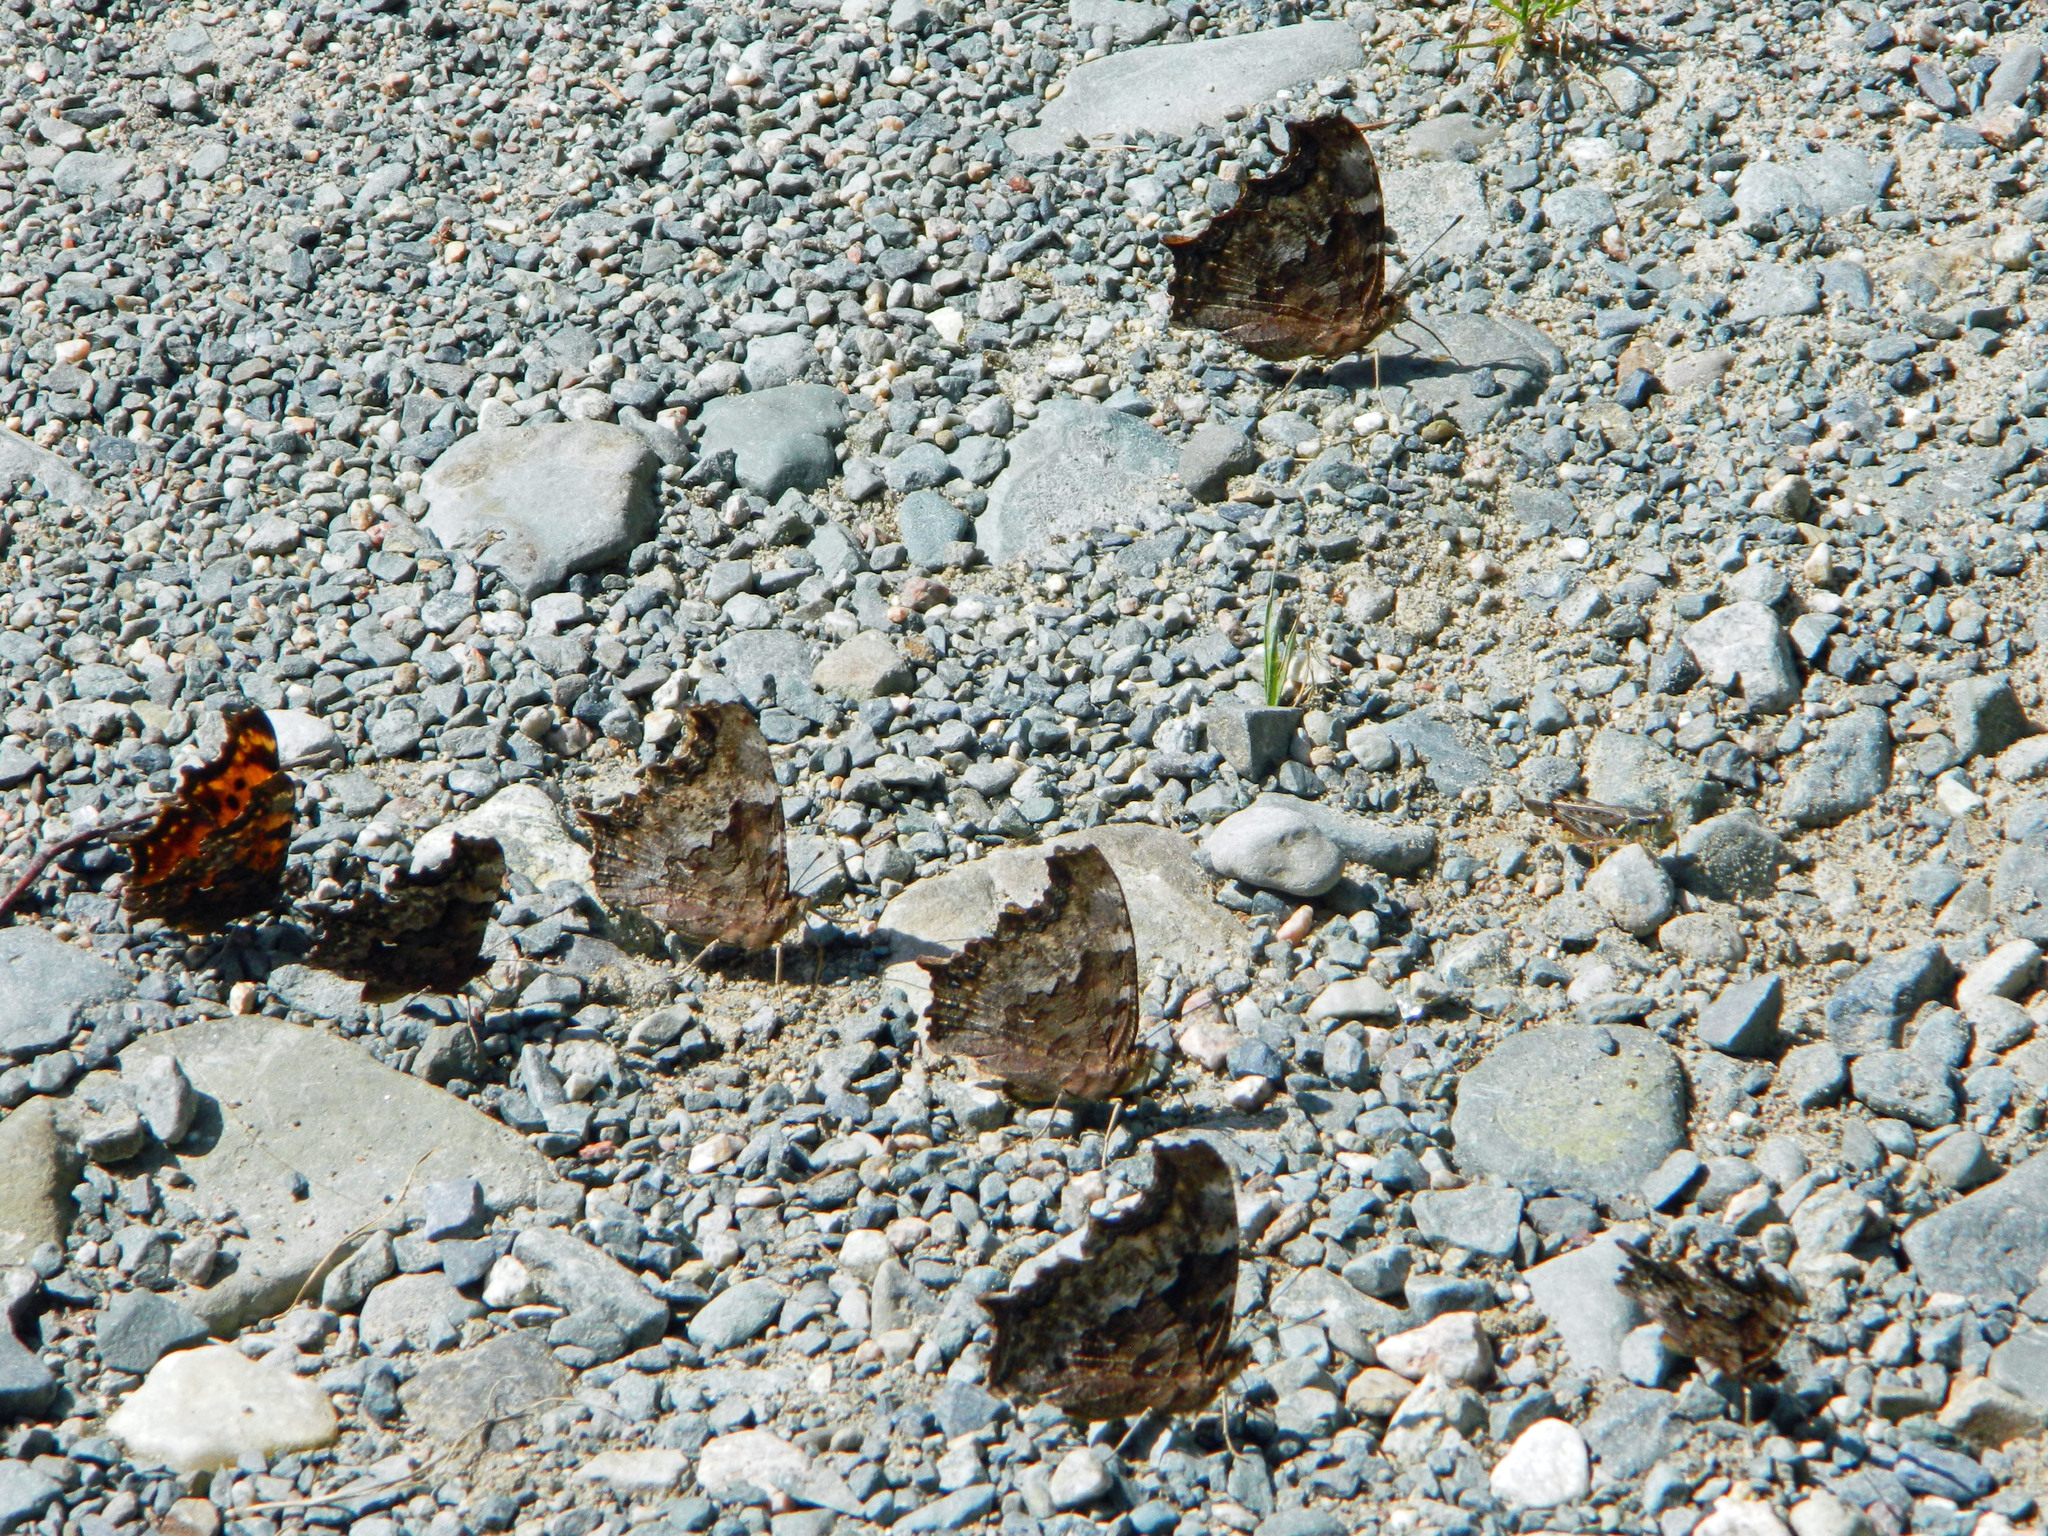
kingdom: Animalia
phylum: Arthropoda
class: Insecta
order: Lepidoptera
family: Nymphalidae
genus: Polygonia
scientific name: Polygonia vaualbum
